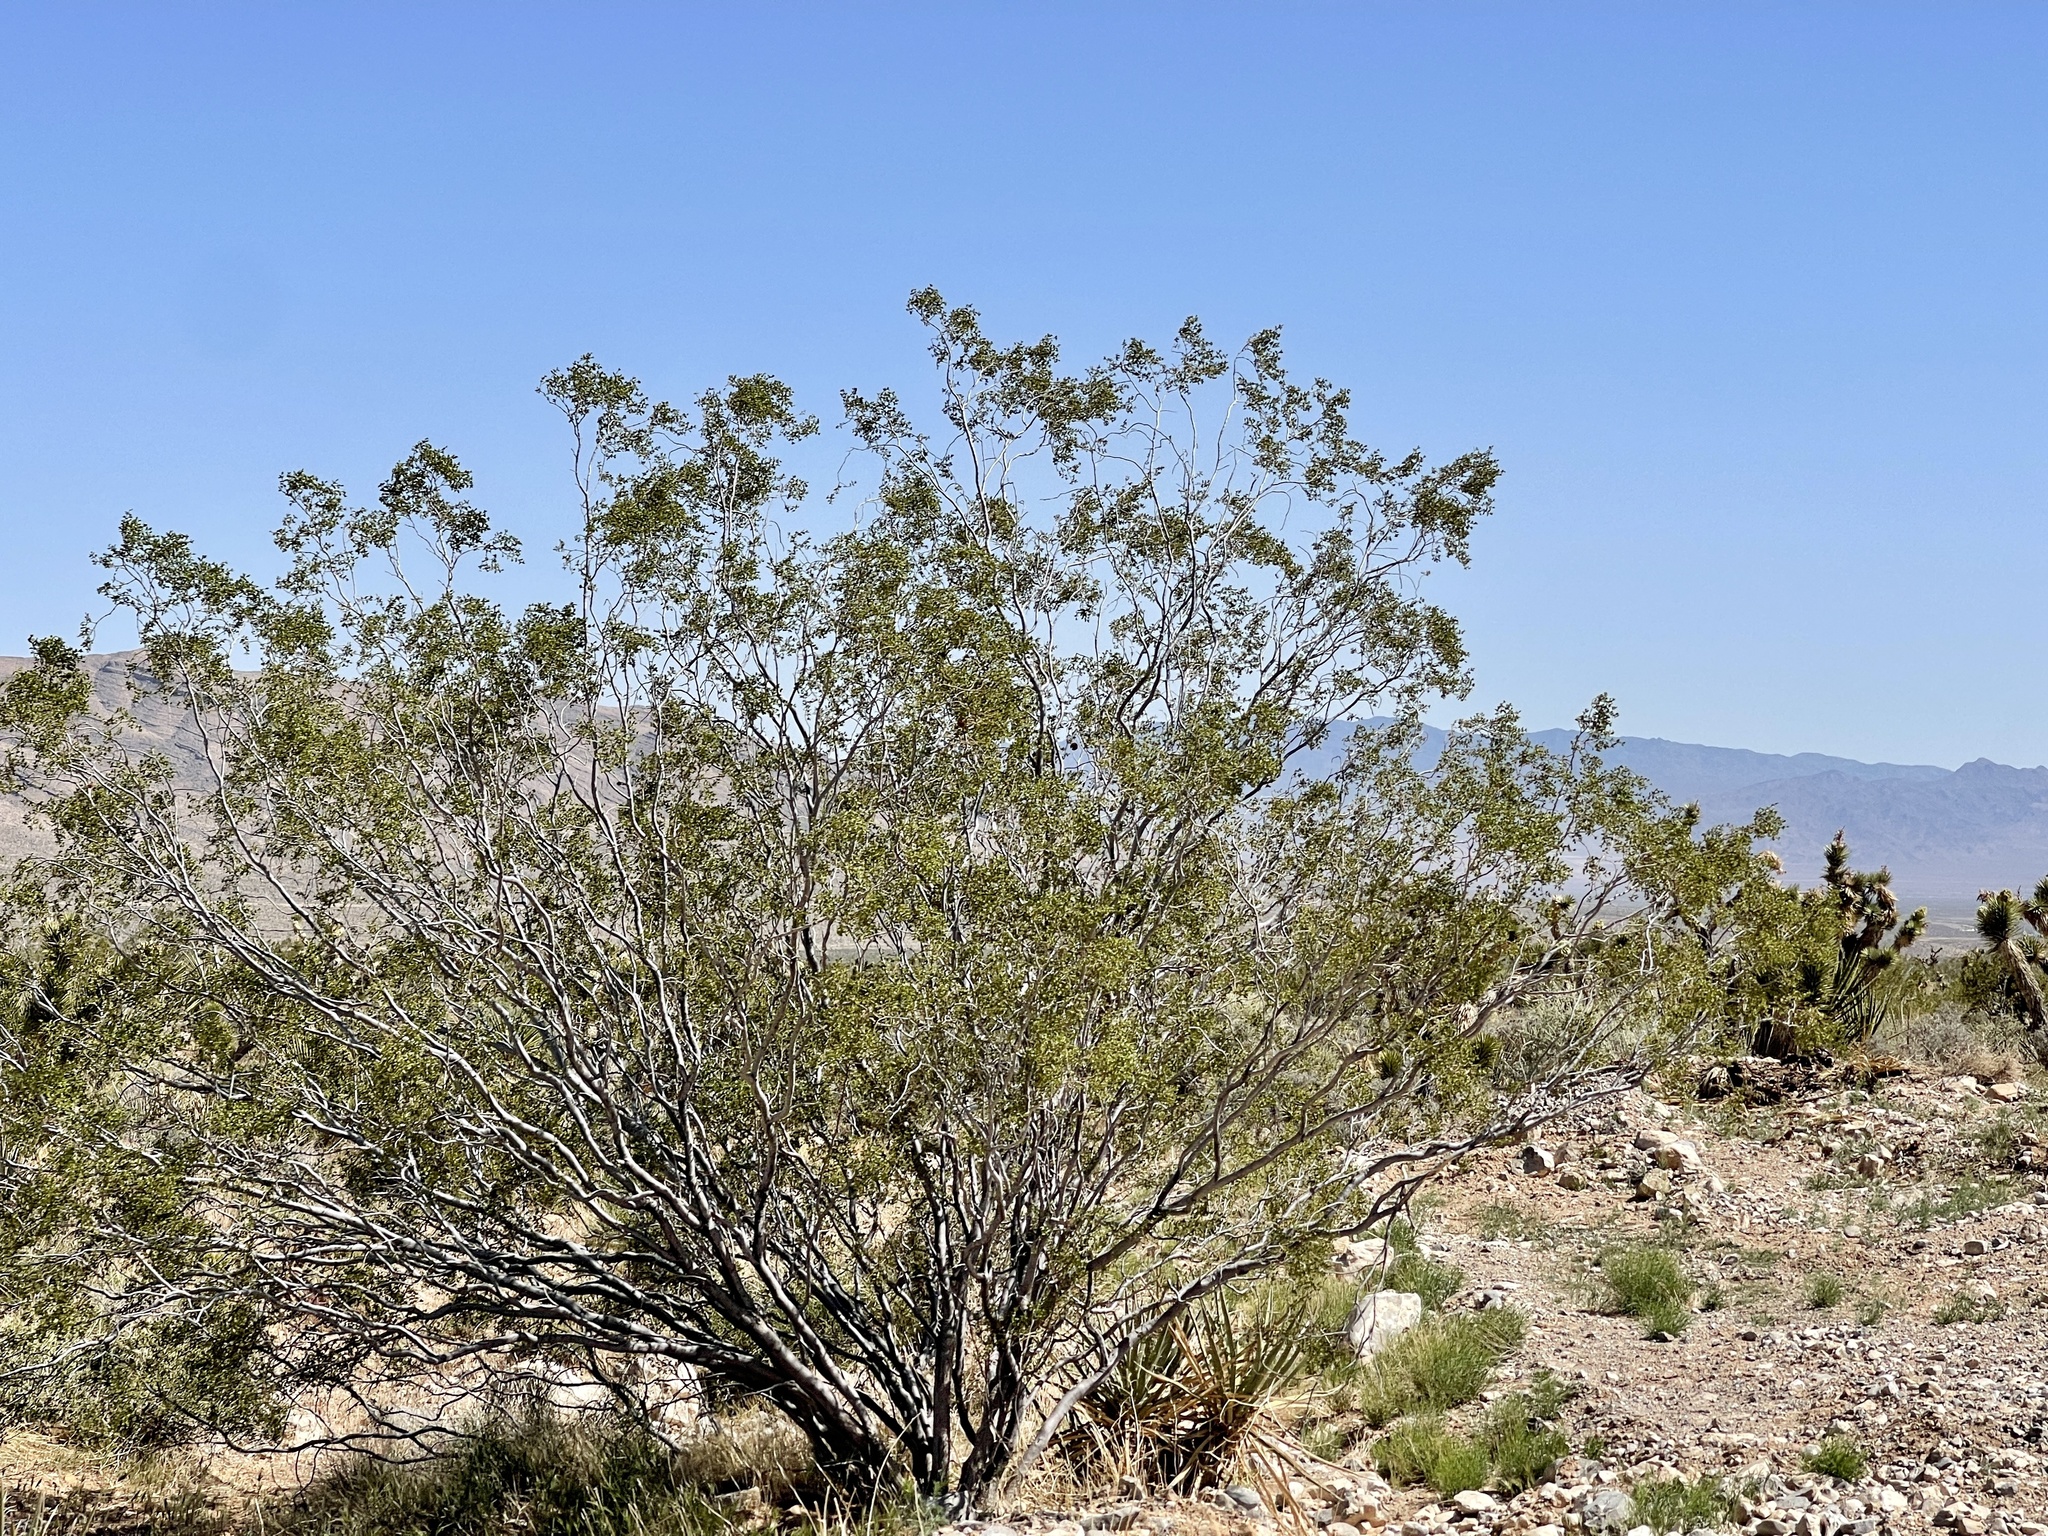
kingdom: Plantae
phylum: Tracheophyta
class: Magnoliopsida
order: Zygophyllales
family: Zygophyllaceae
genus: Larrea
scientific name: Larrea tridentata
